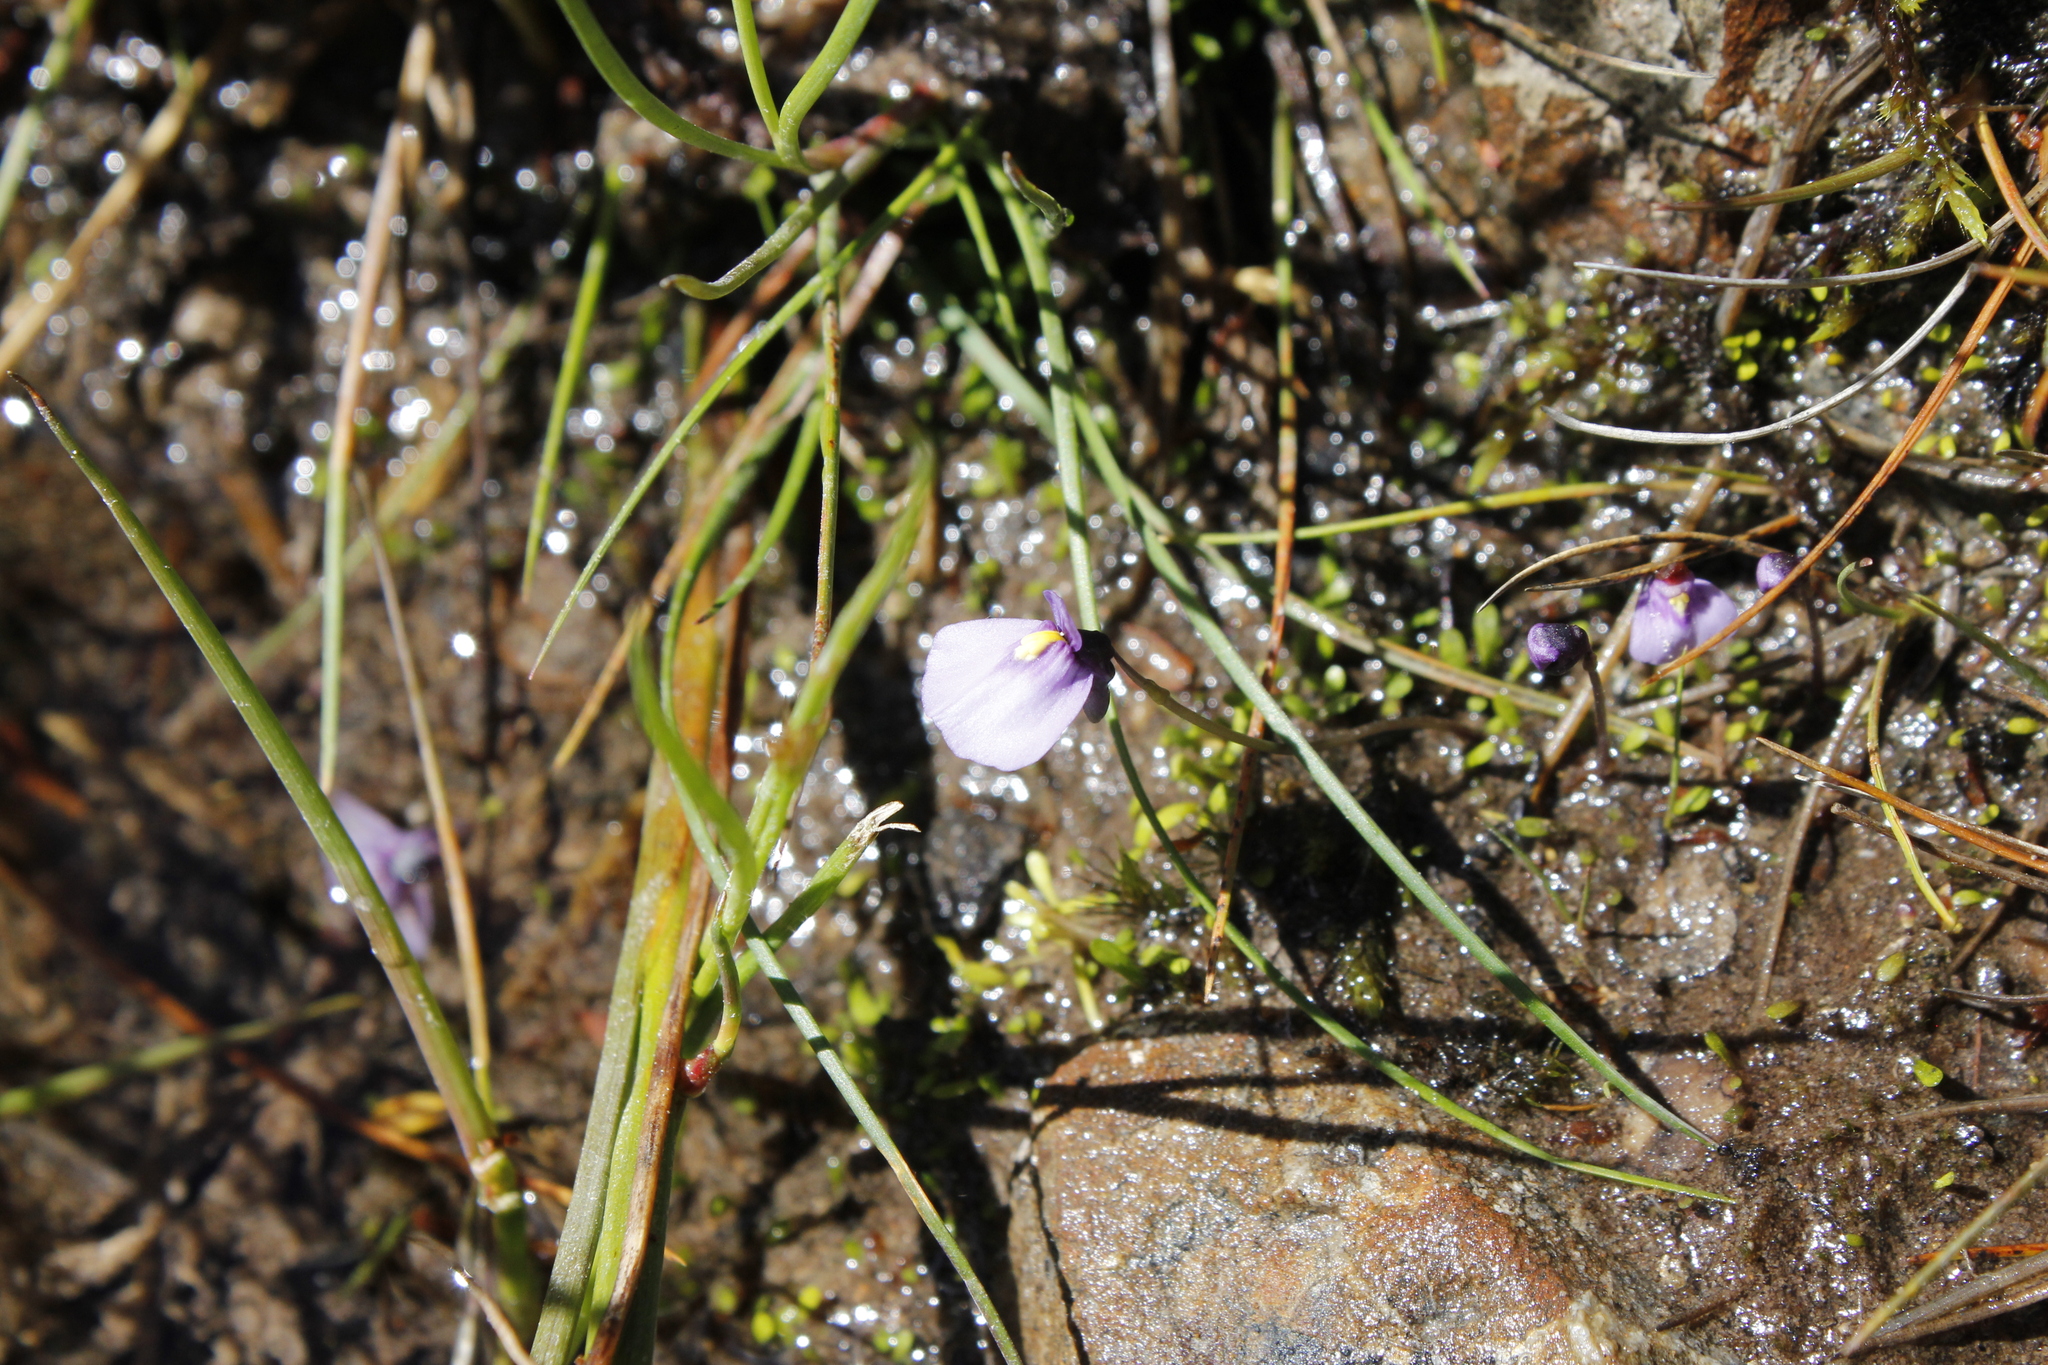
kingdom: Plantae
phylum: Tracheophyta
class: Magnoliopsida
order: Lamiales
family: Lentibulariaceae
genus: Utricularia
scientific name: Utricularia dichotoma
